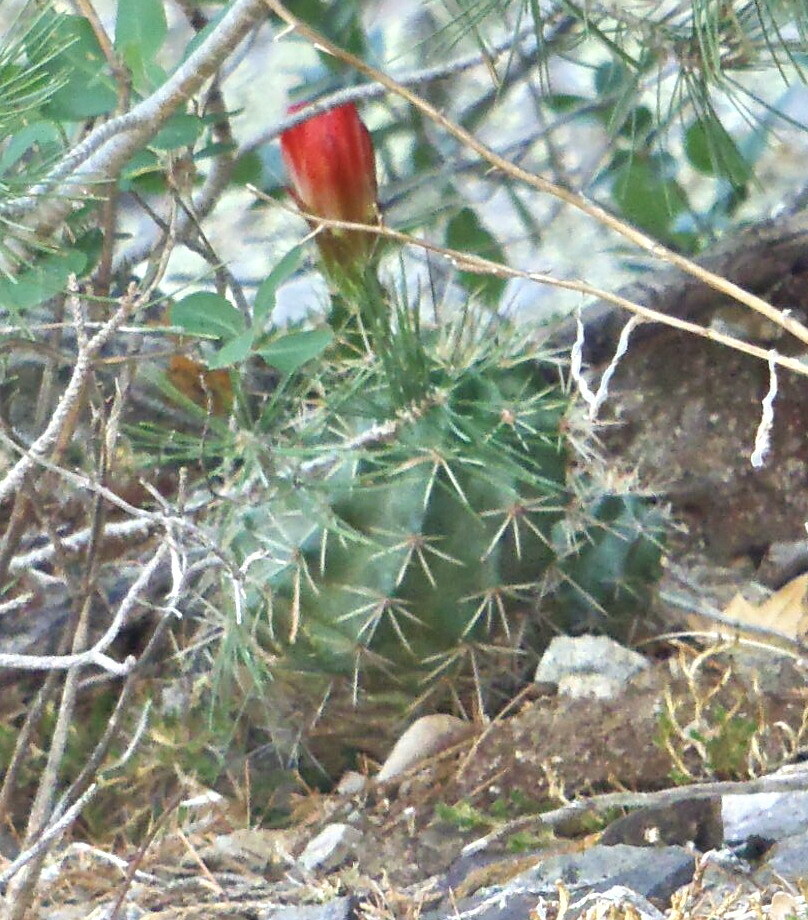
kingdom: Plantae
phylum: Tracheophyta
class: Magnoliopsida
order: Caryophyllales
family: Cactaceae
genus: Echinocereus
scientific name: Echinocereus coccineus
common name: Scarlet hedgehog cactus
